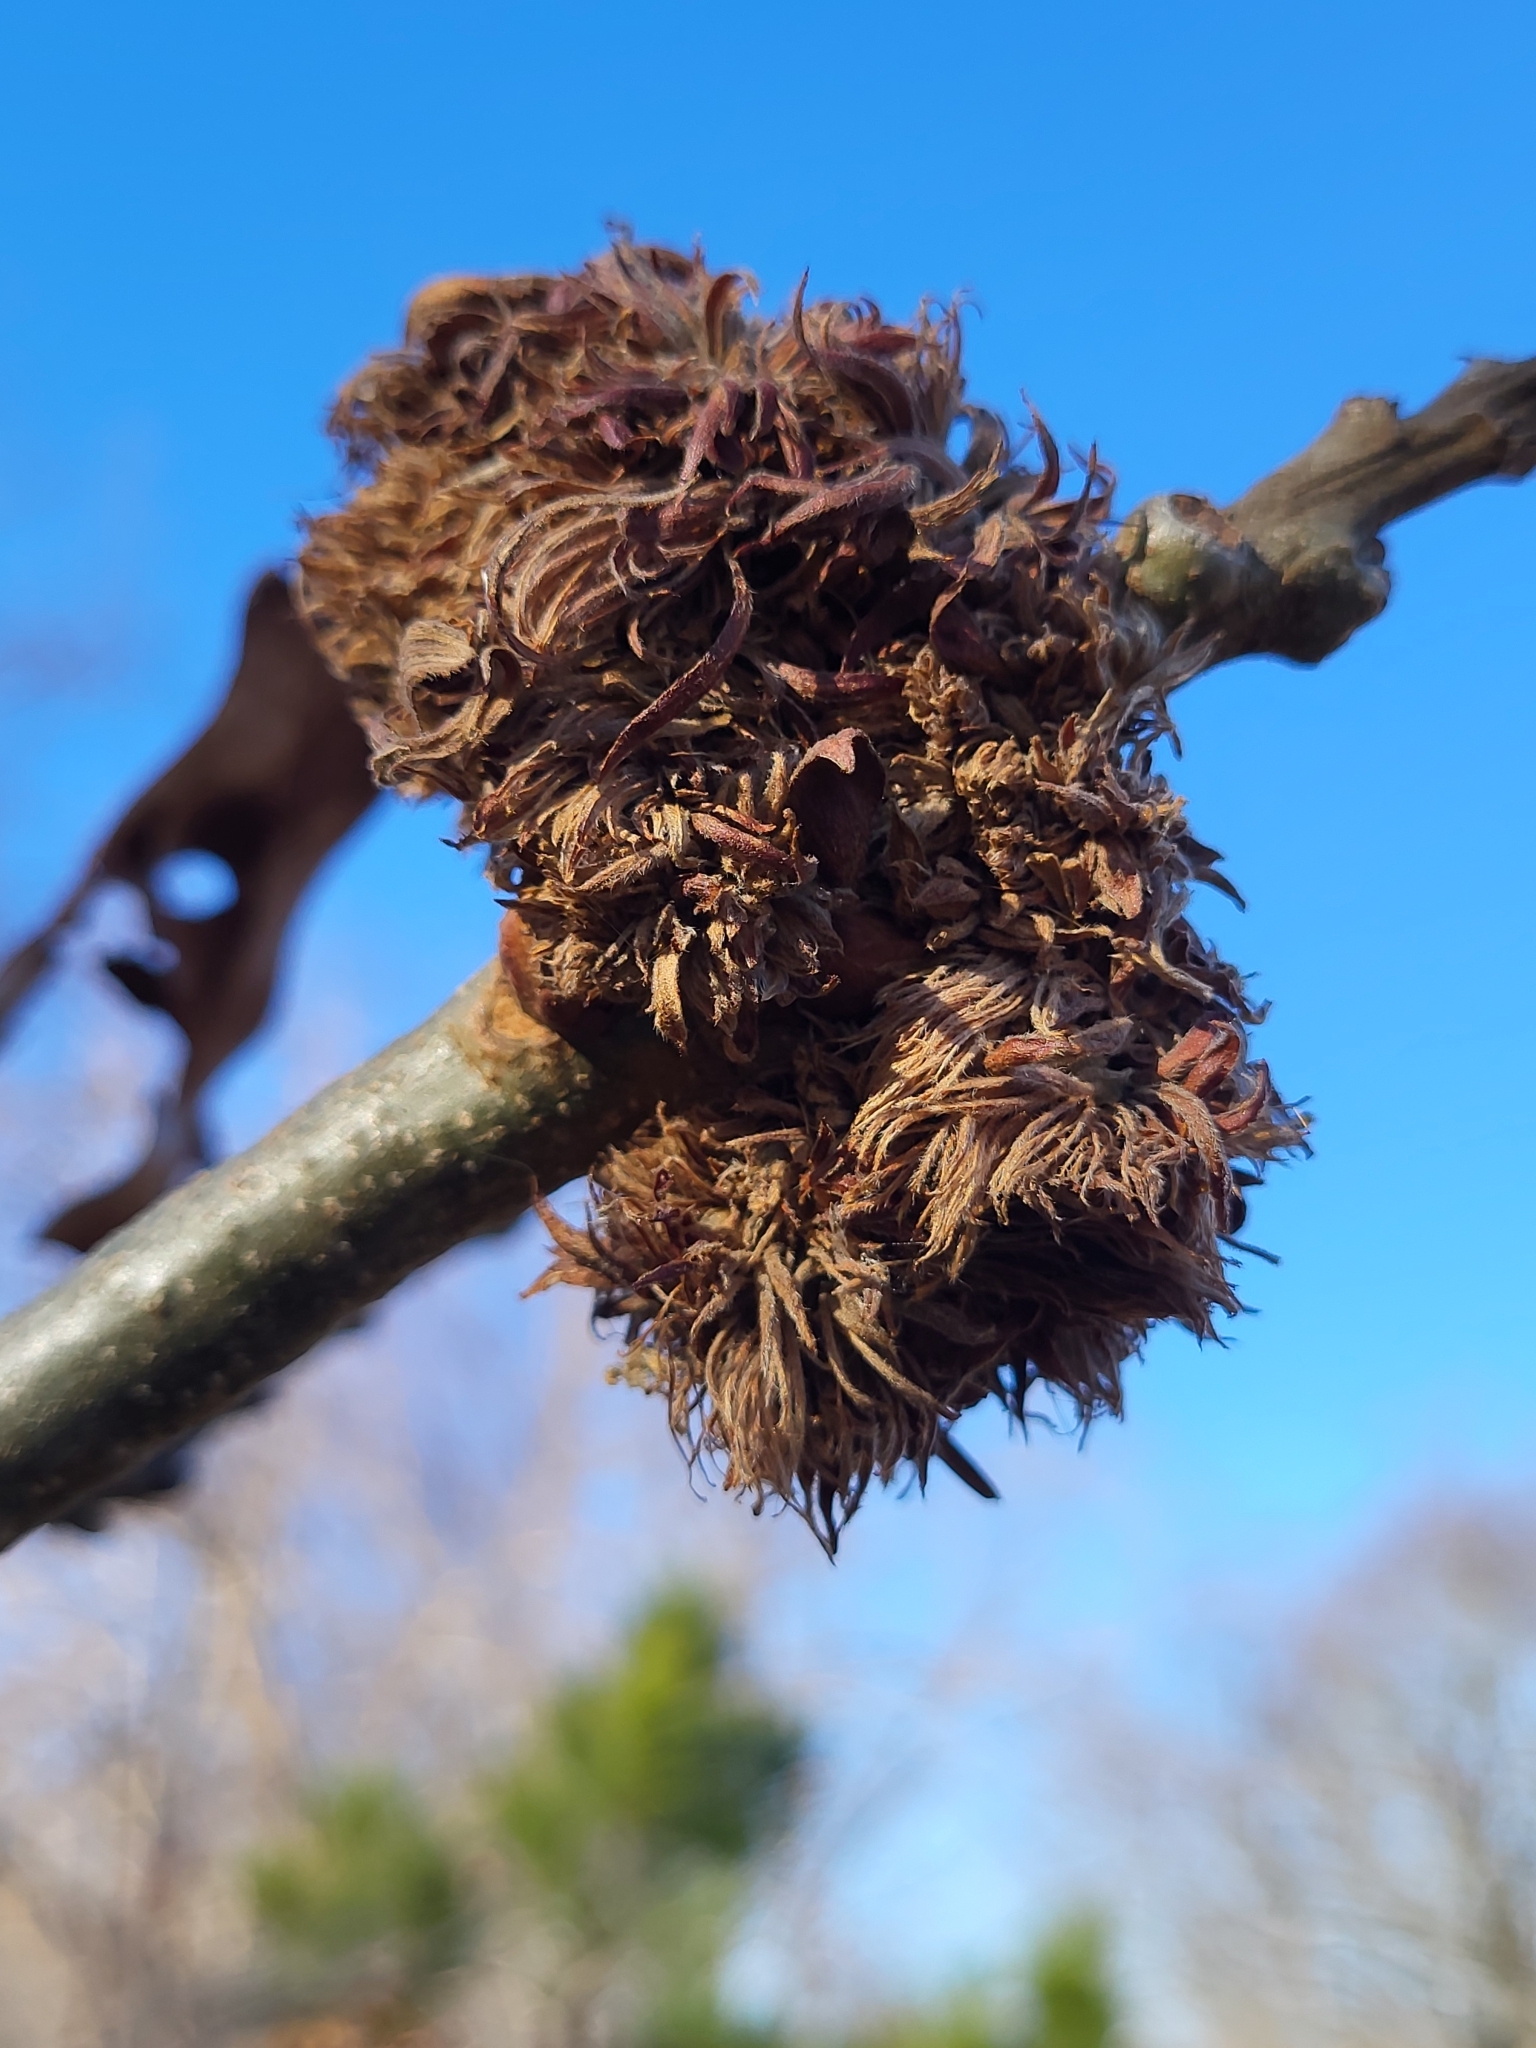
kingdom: Animalia
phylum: Arthropoda
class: Insecta
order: Hymenoptera
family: Cynipidae
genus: Andricus
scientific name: Andricus
